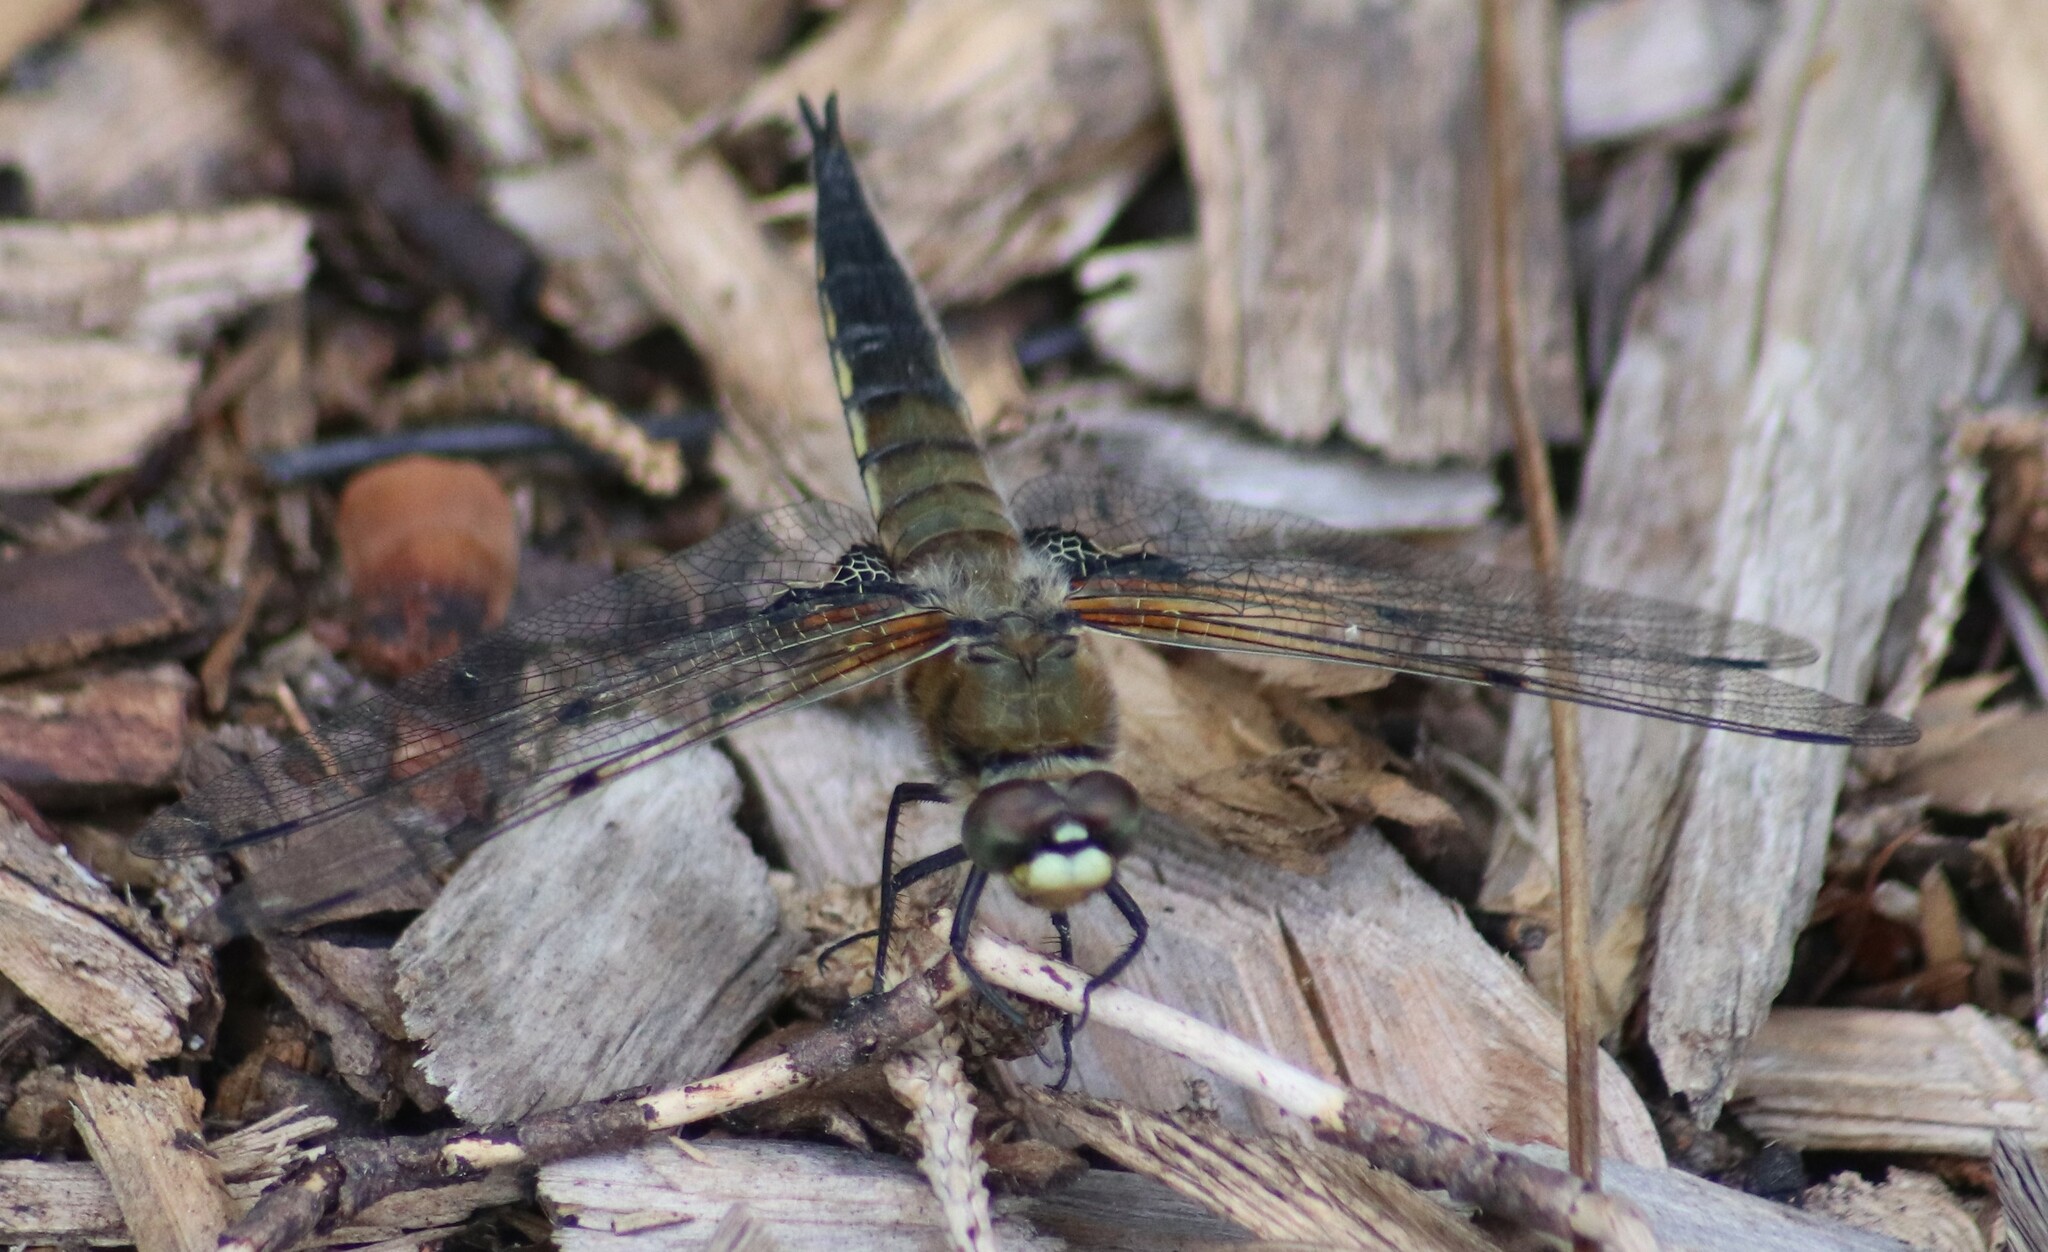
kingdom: Animalia
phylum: Arthropoda
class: Insecta
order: Odonata
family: Libellulidae
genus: Libellula
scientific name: Libellula quadrimaculata
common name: Four-spotted chaser
